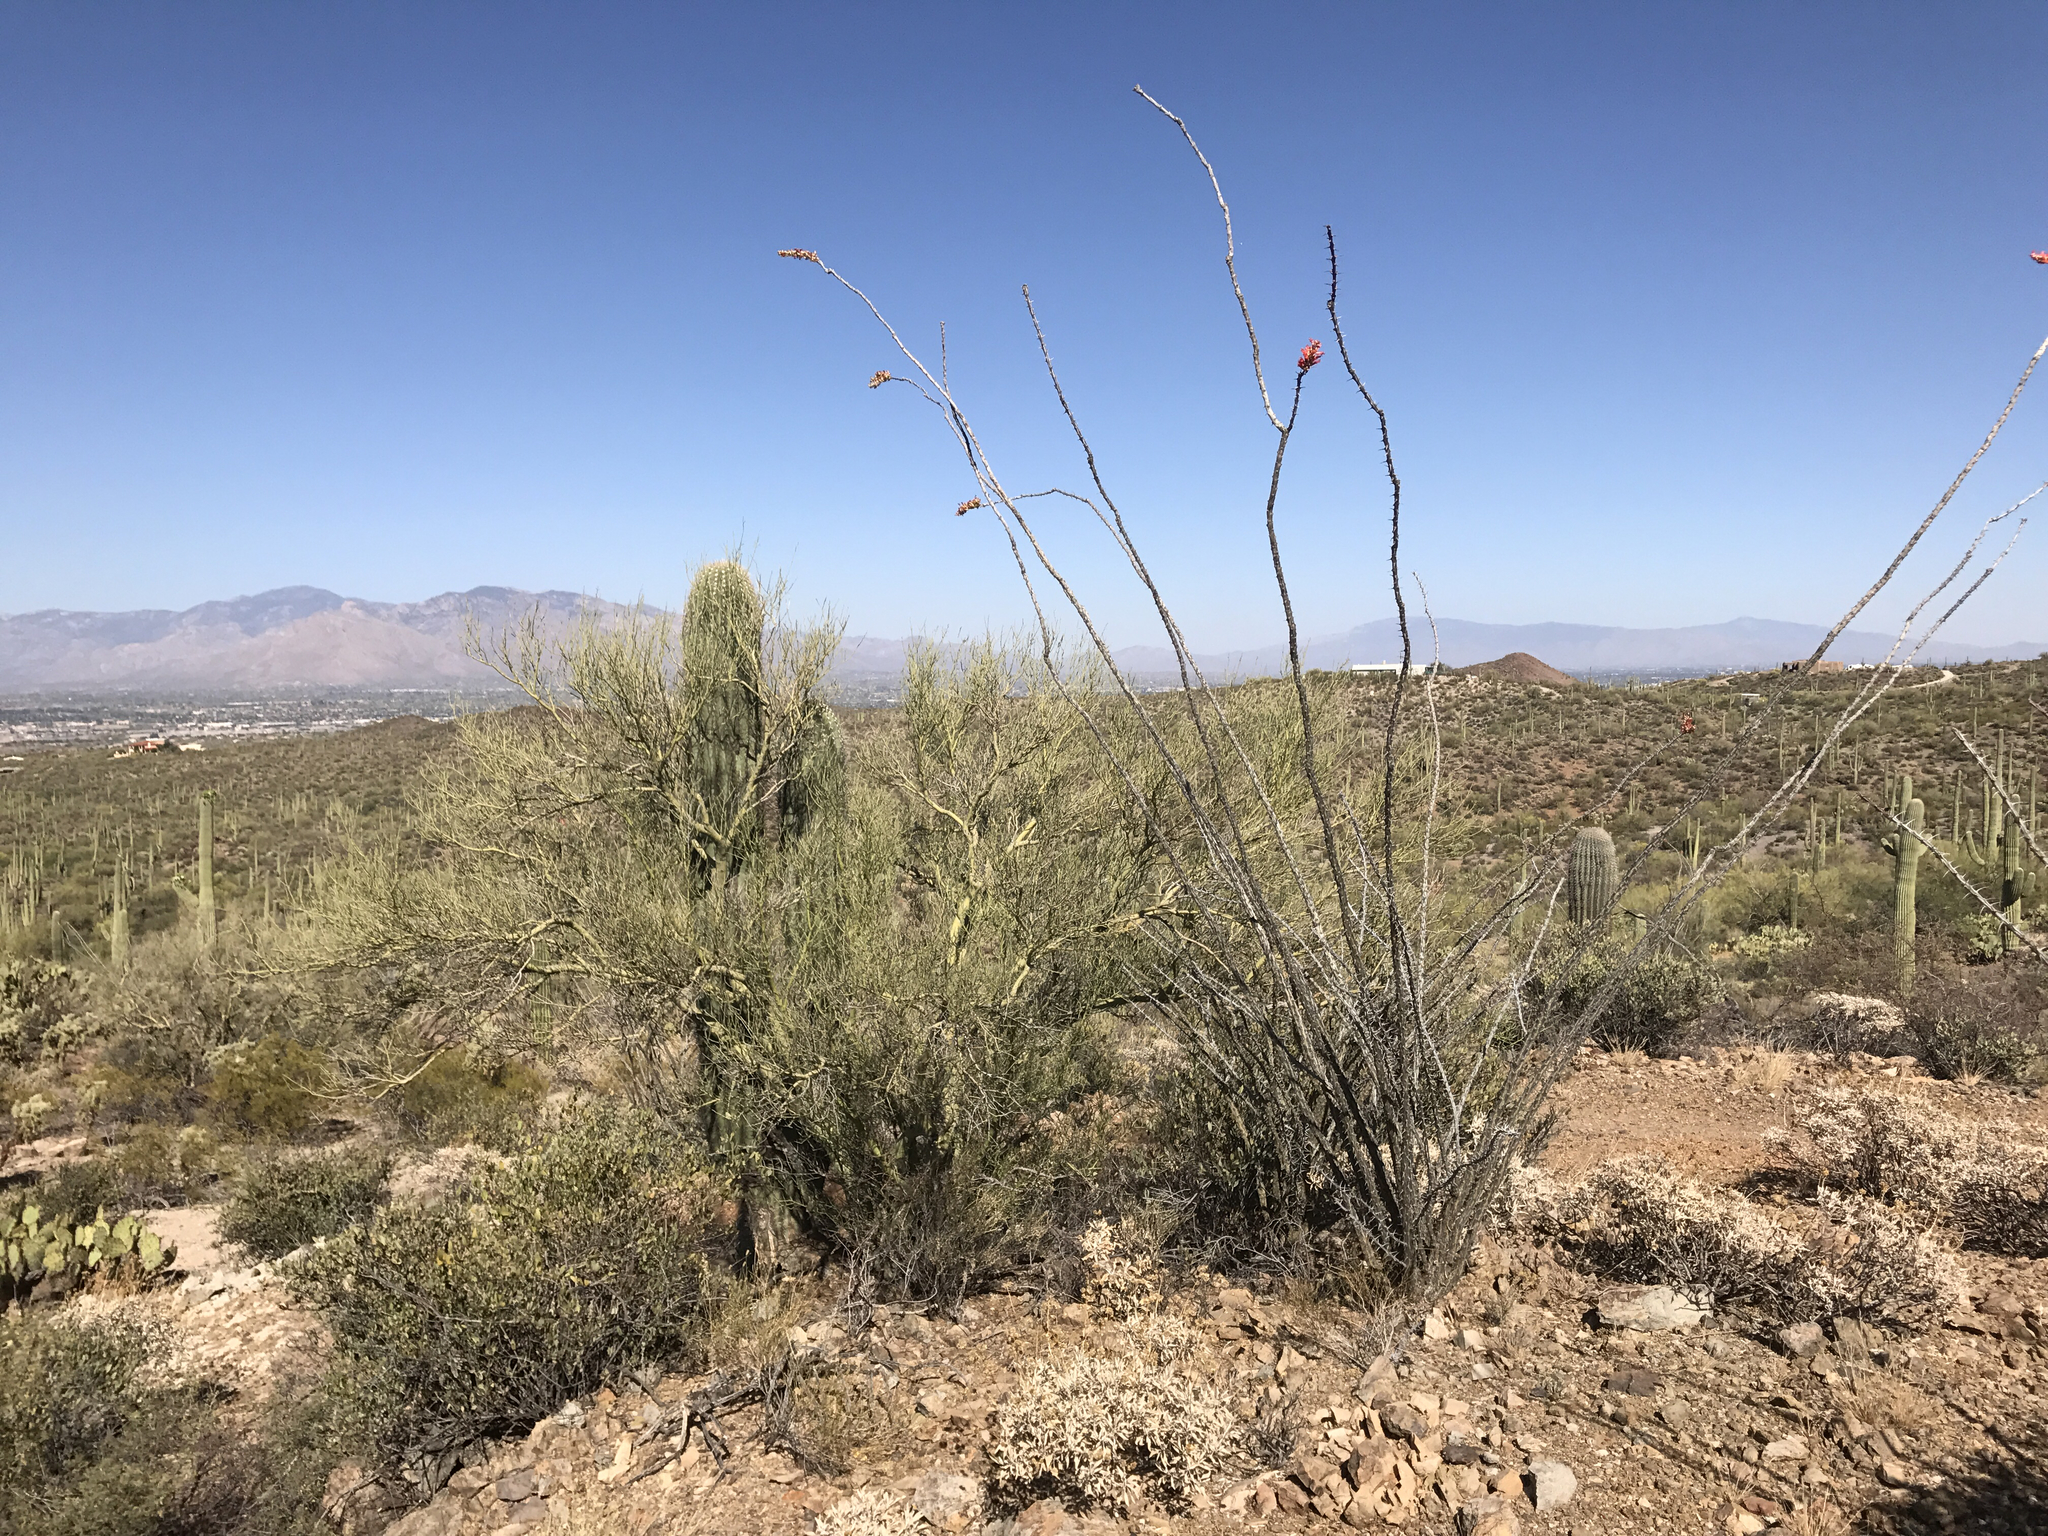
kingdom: Plantae
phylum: Tracheophyta
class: Magnoliopsida
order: Ericales
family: Fouquieriaceae
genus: Fouquieria
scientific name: Fouquieria splendens
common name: Vine-cactus
